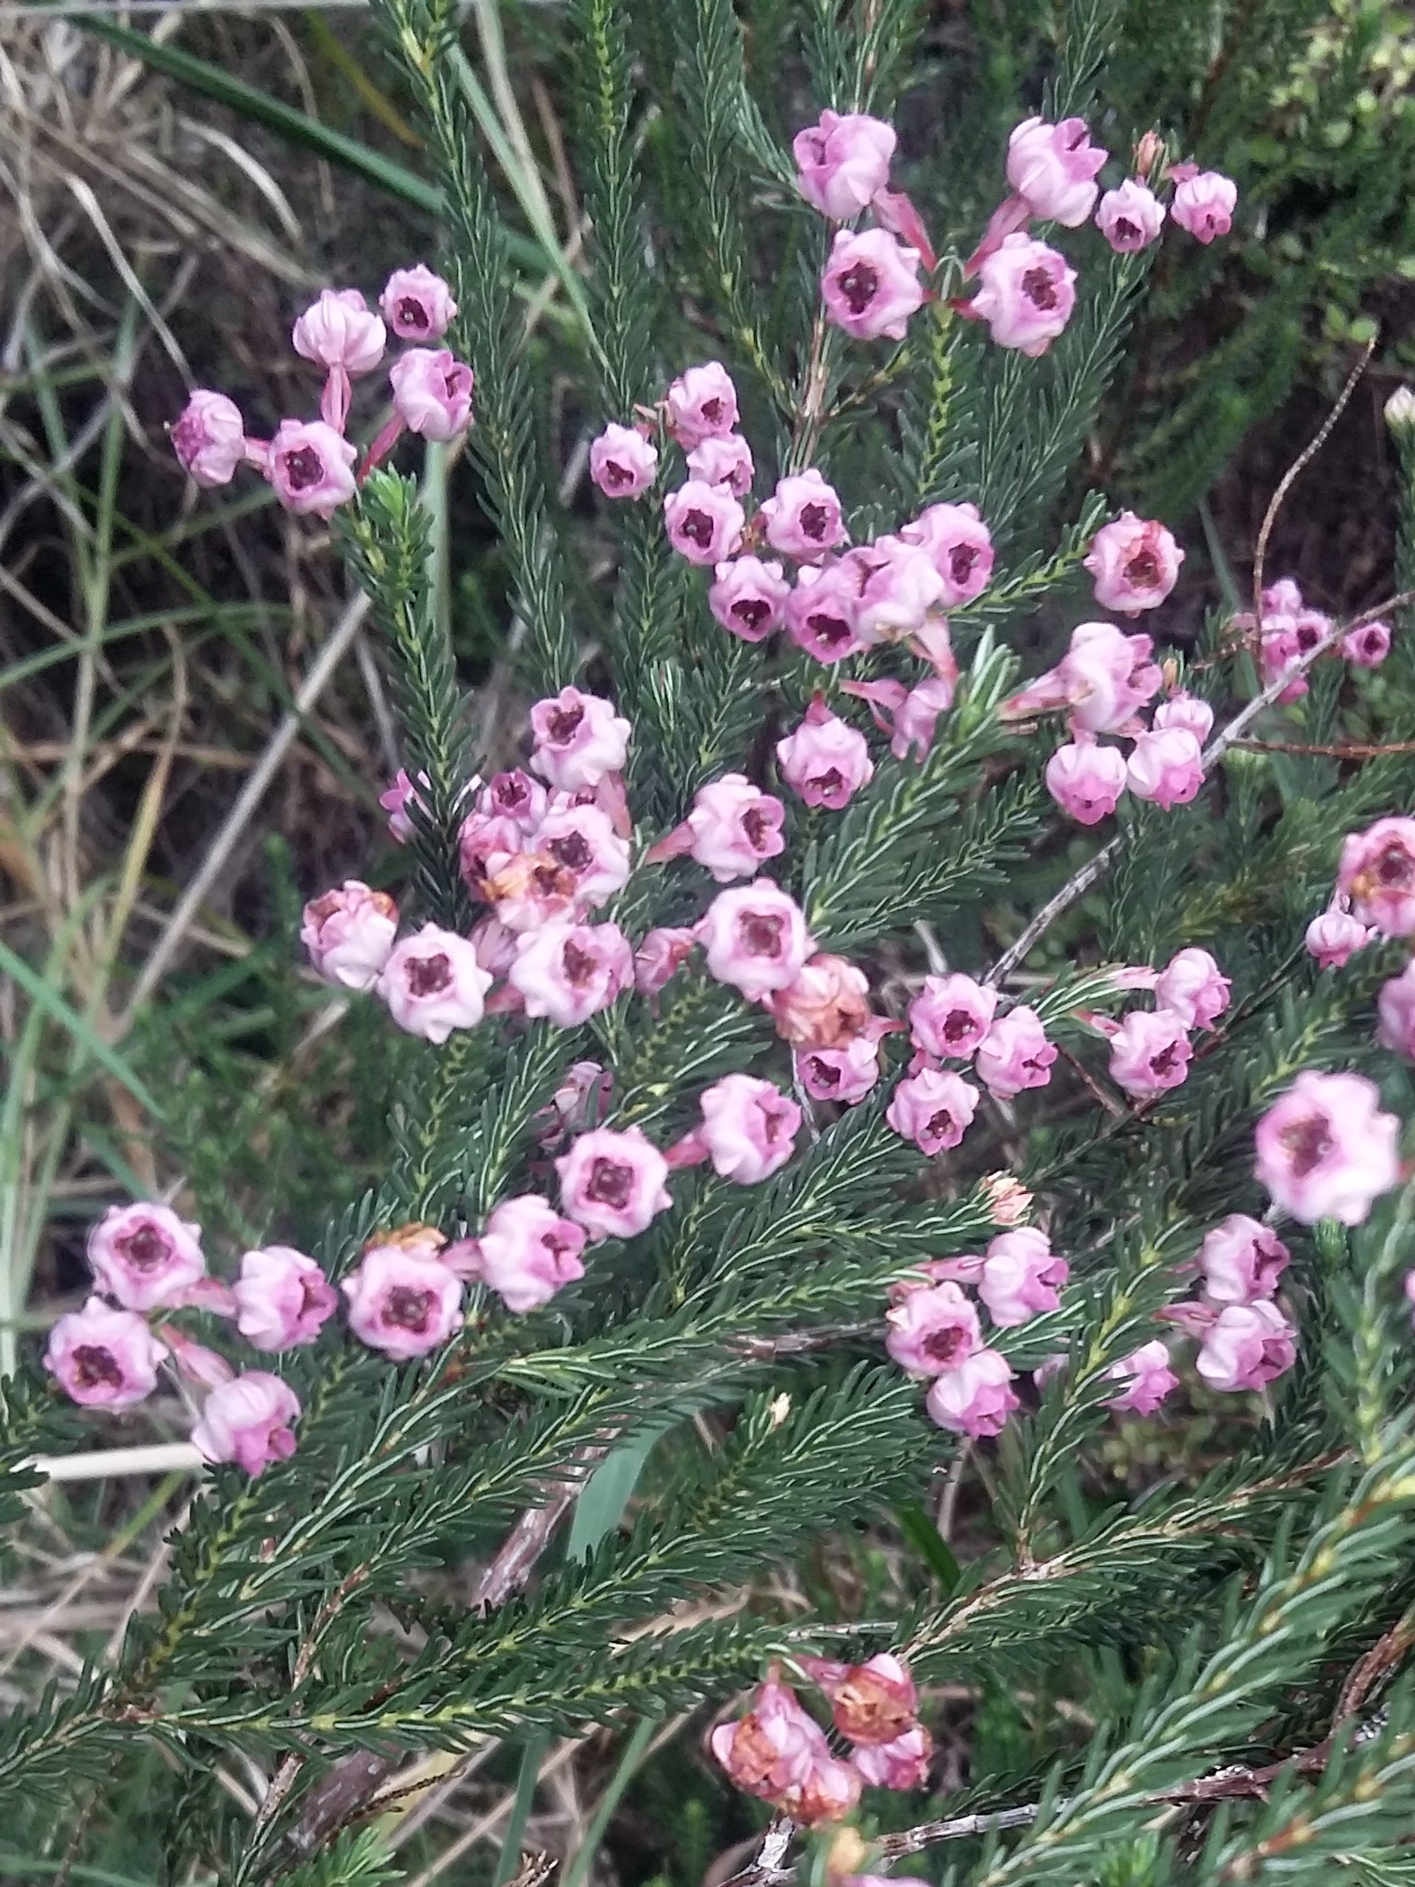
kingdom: Plantae
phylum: Tracheophyta
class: Magnoliopsida
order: Ericales
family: Ericaceae
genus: Erica
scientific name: Erica baccans
